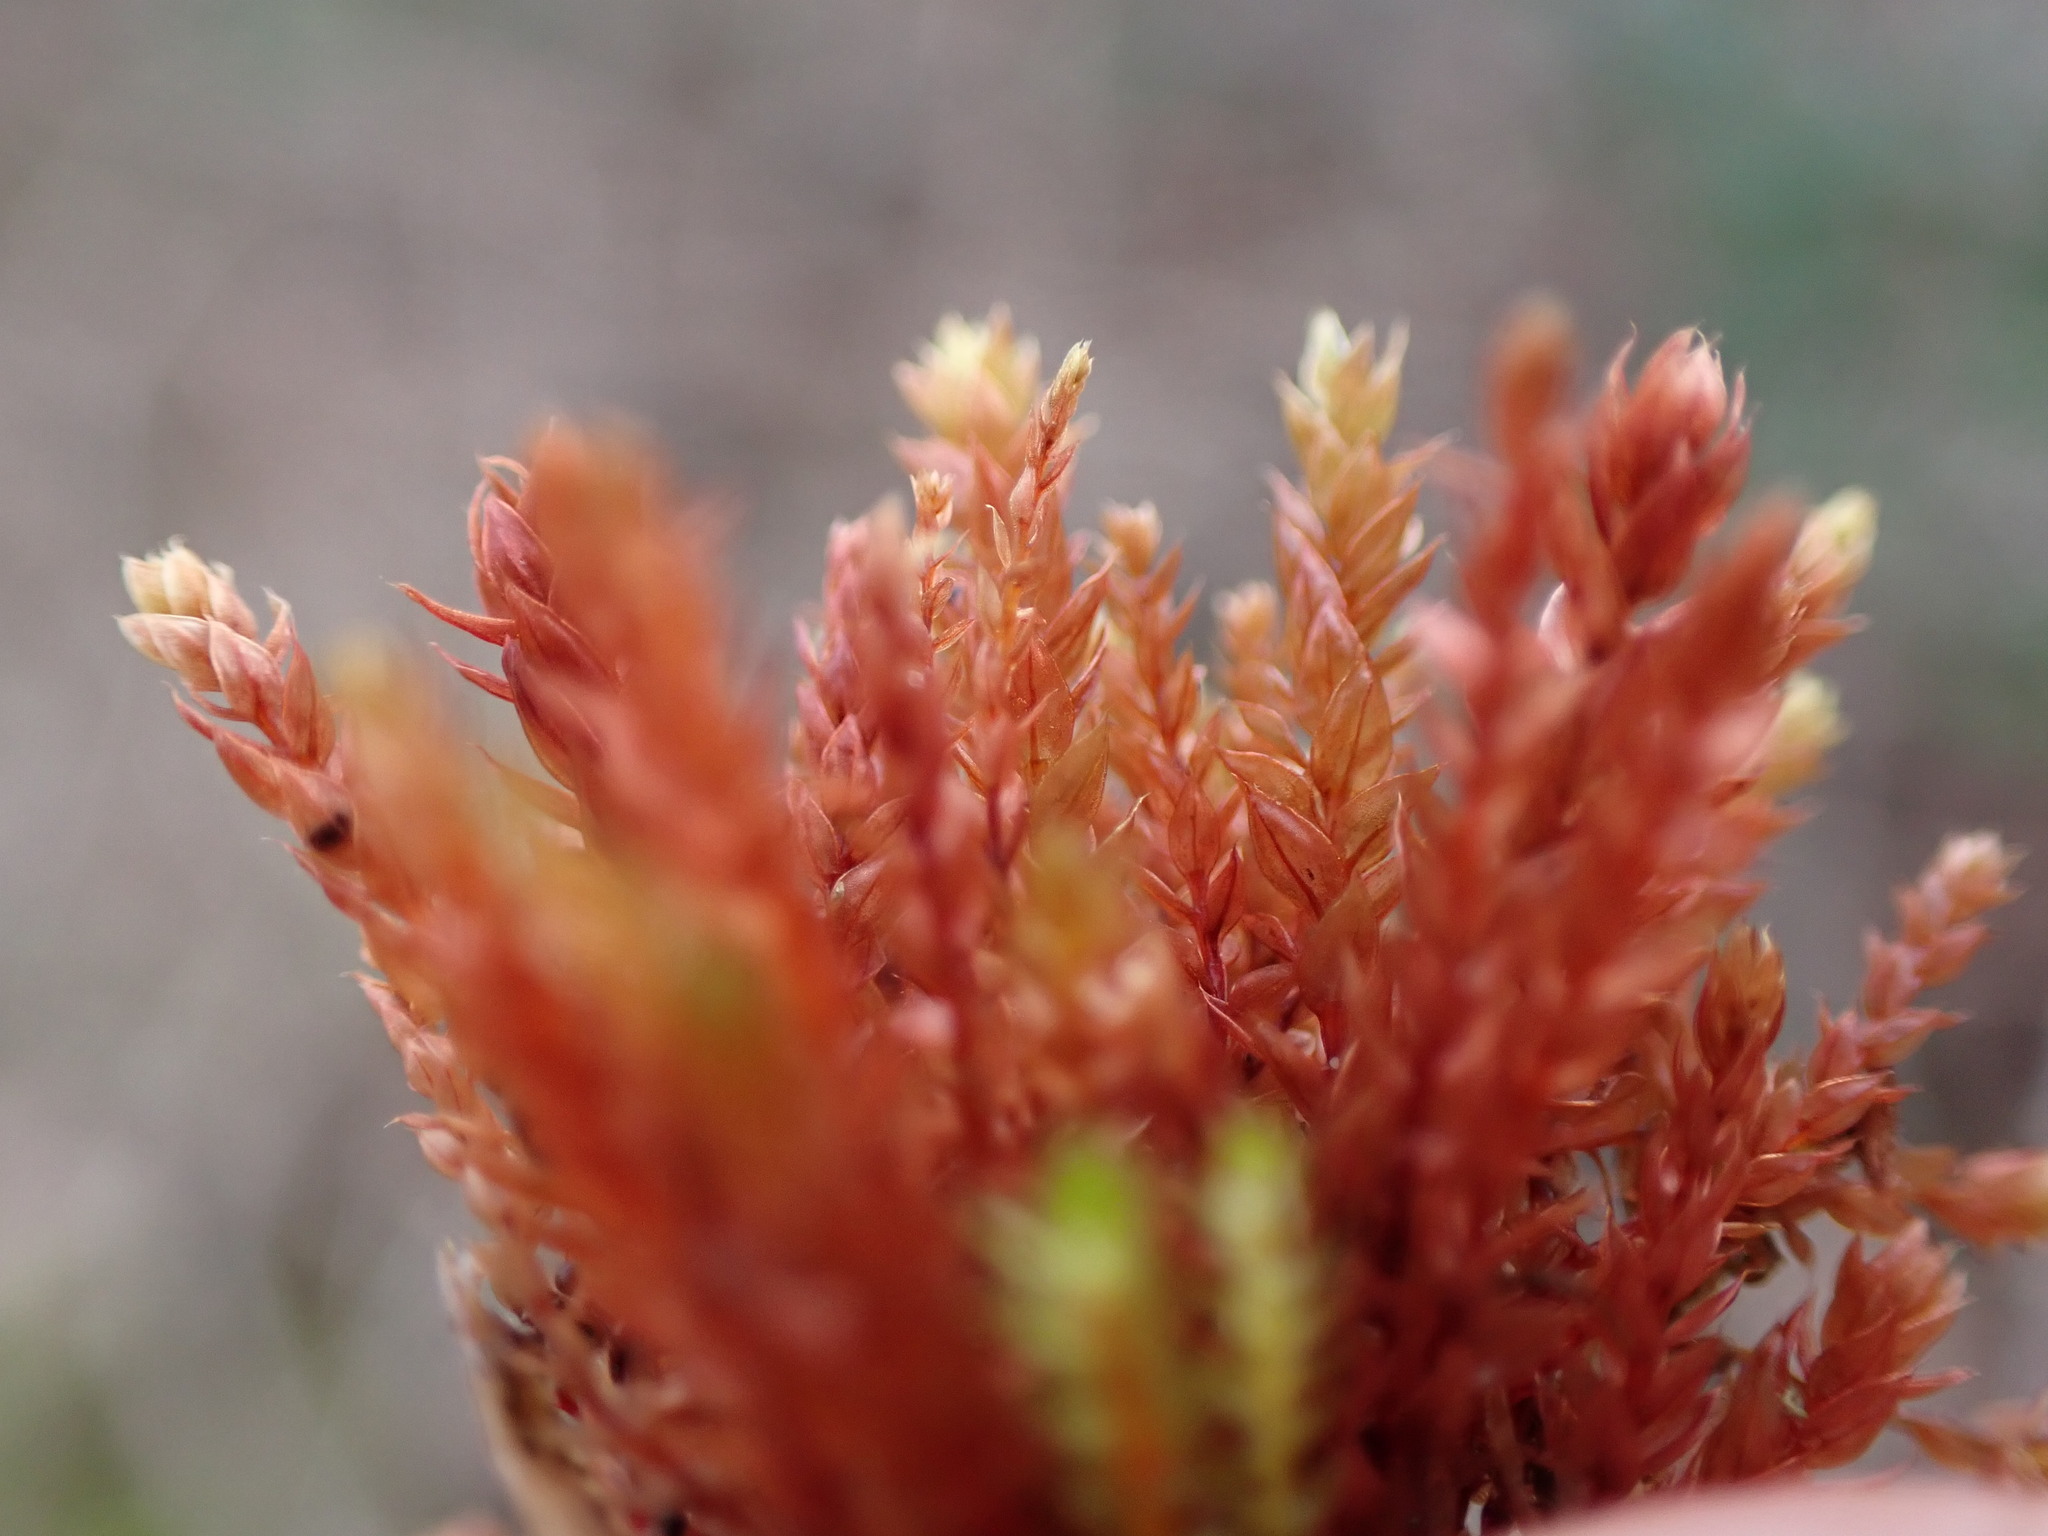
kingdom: Plantae
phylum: Bryophyta
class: Bryopsida
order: Bryales
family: Bryaceae
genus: Ptychostomum
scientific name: Ptychostomum pallens
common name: Pale thread-moss
